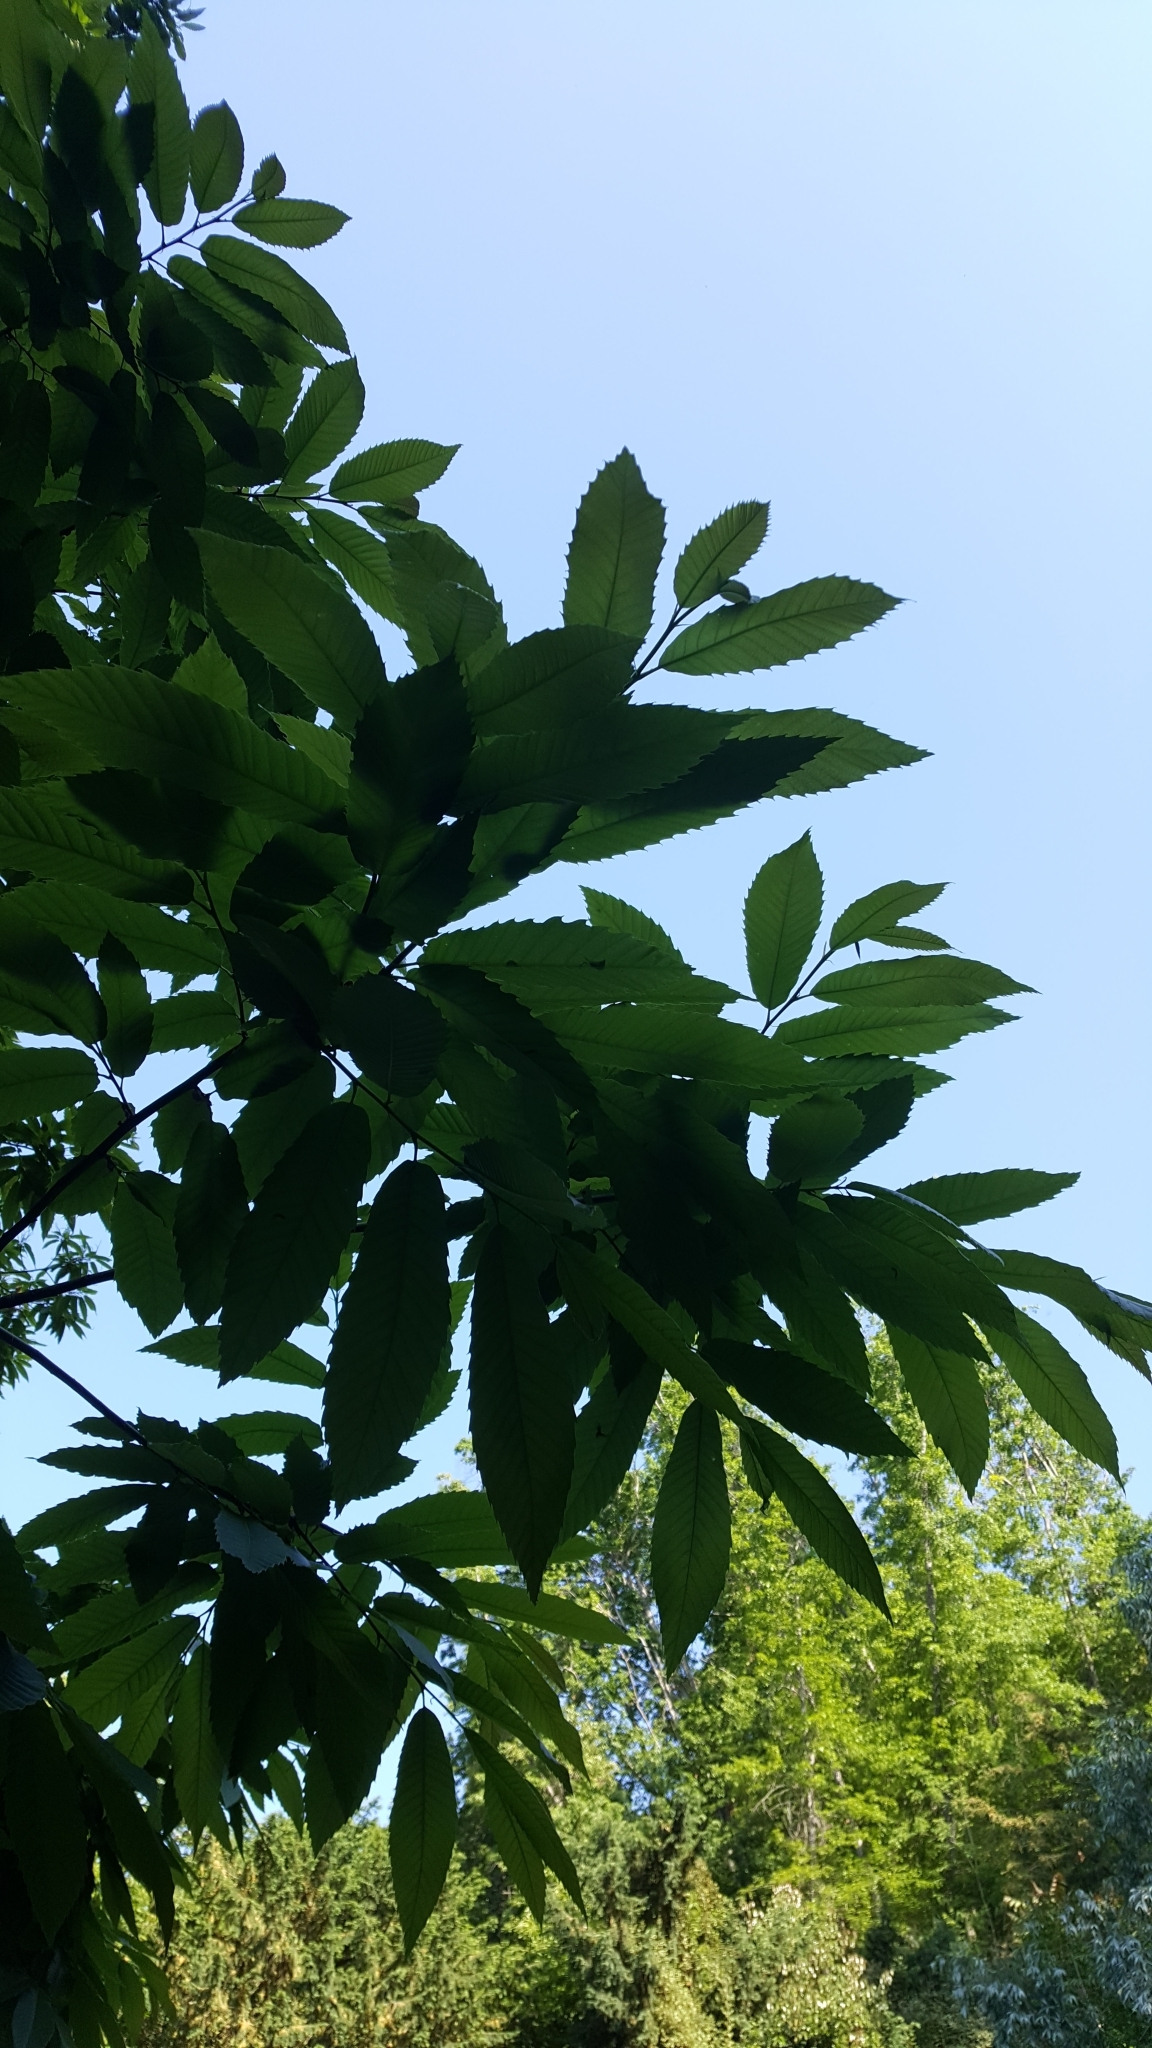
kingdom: Plantae
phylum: Tracheophyta
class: Magnoliopsida
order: Fagales
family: Fagaceae
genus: Castanea
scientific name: Castanea sativa
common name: Sweet chestnut
